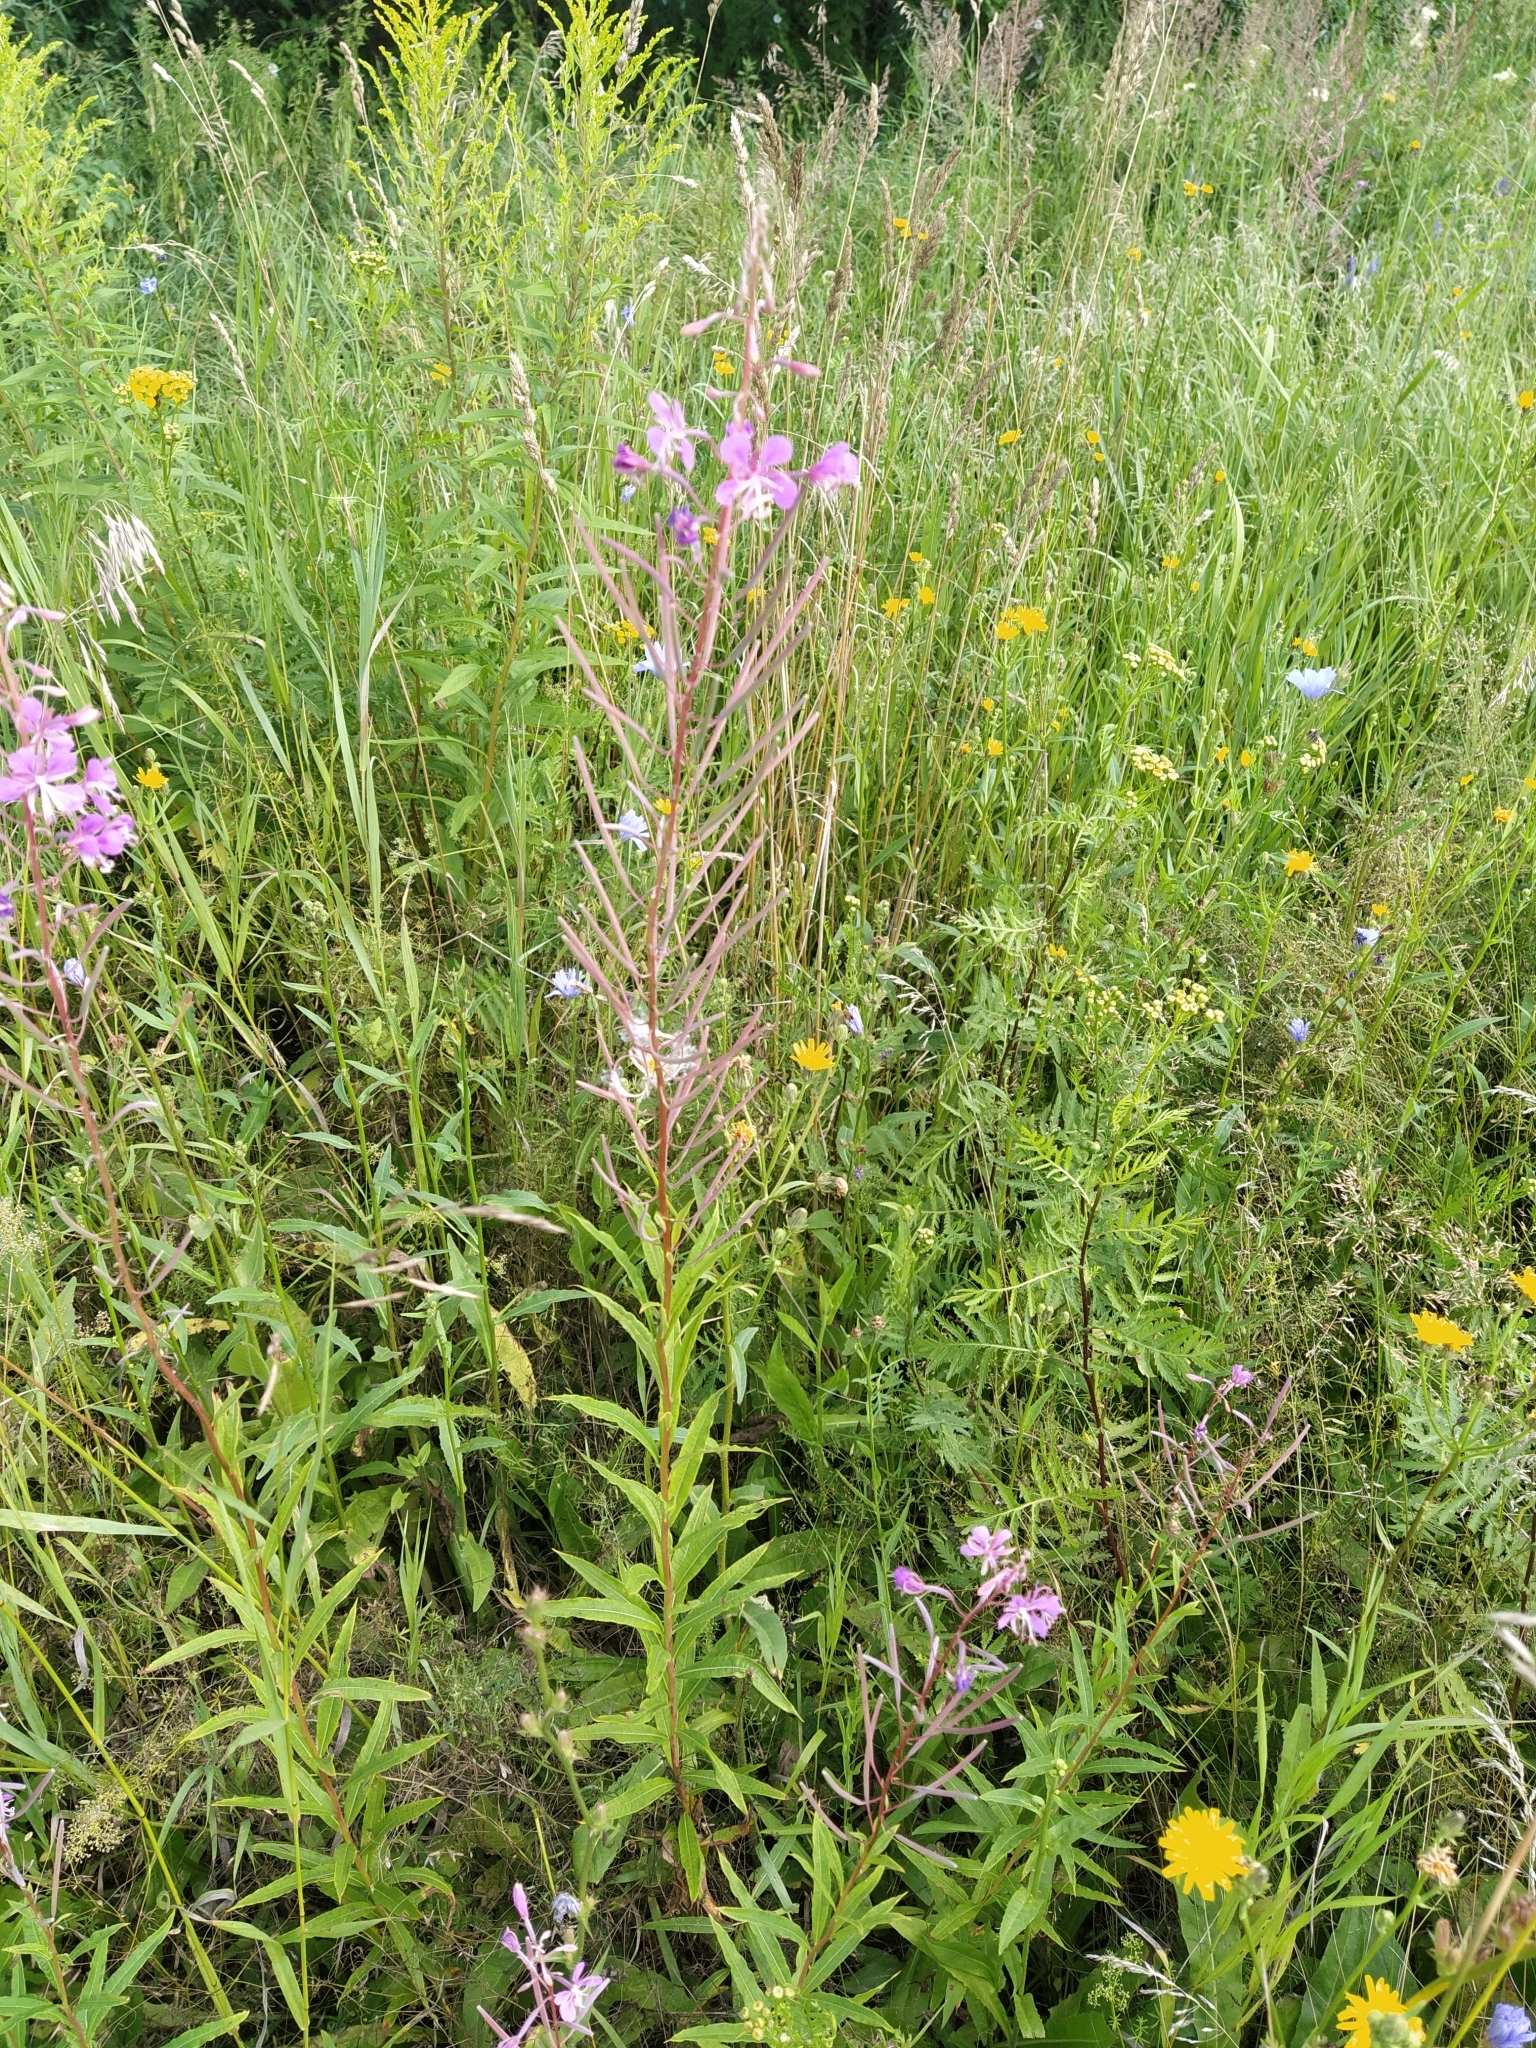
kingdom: Plantae
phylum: Tracheophyta
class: Magnoliopsida
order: Myrtales
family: Onagraceae
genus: Chamaenerion
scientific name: Chamaenerion angustifolium
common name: Fireweed
